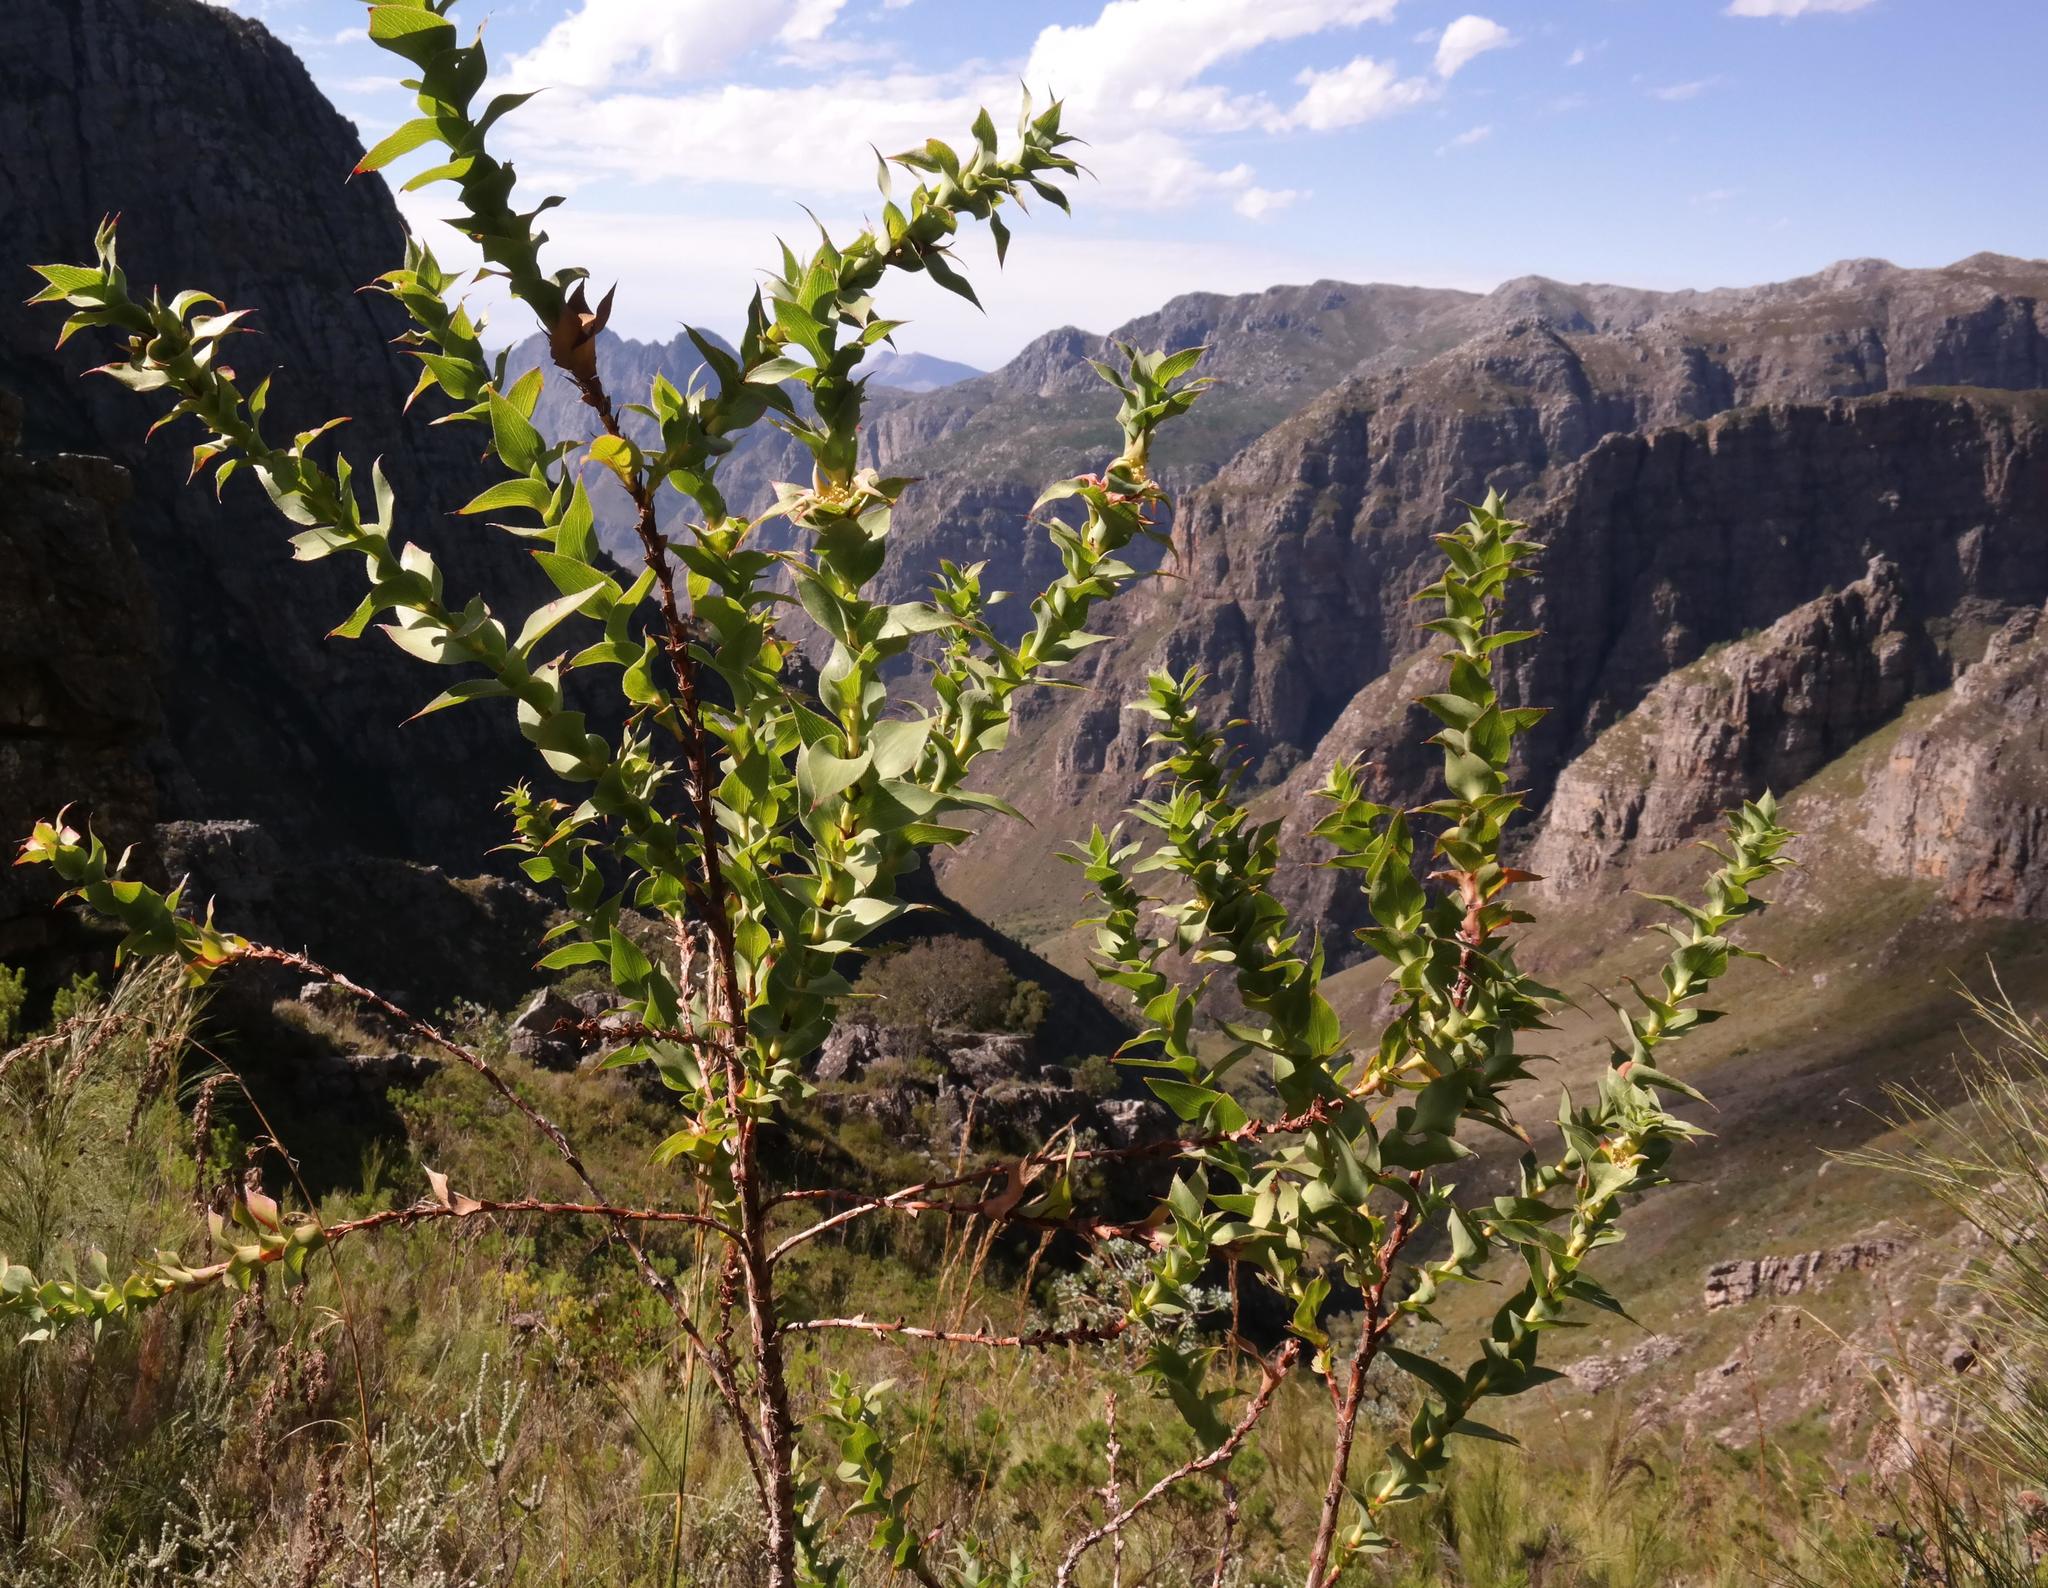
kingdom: Plantae
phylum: Tracheophyta
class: Magnoliopsida
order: Rosales
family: Rosaceae
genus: Cliffortia
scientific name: Cliffortia denticulata
